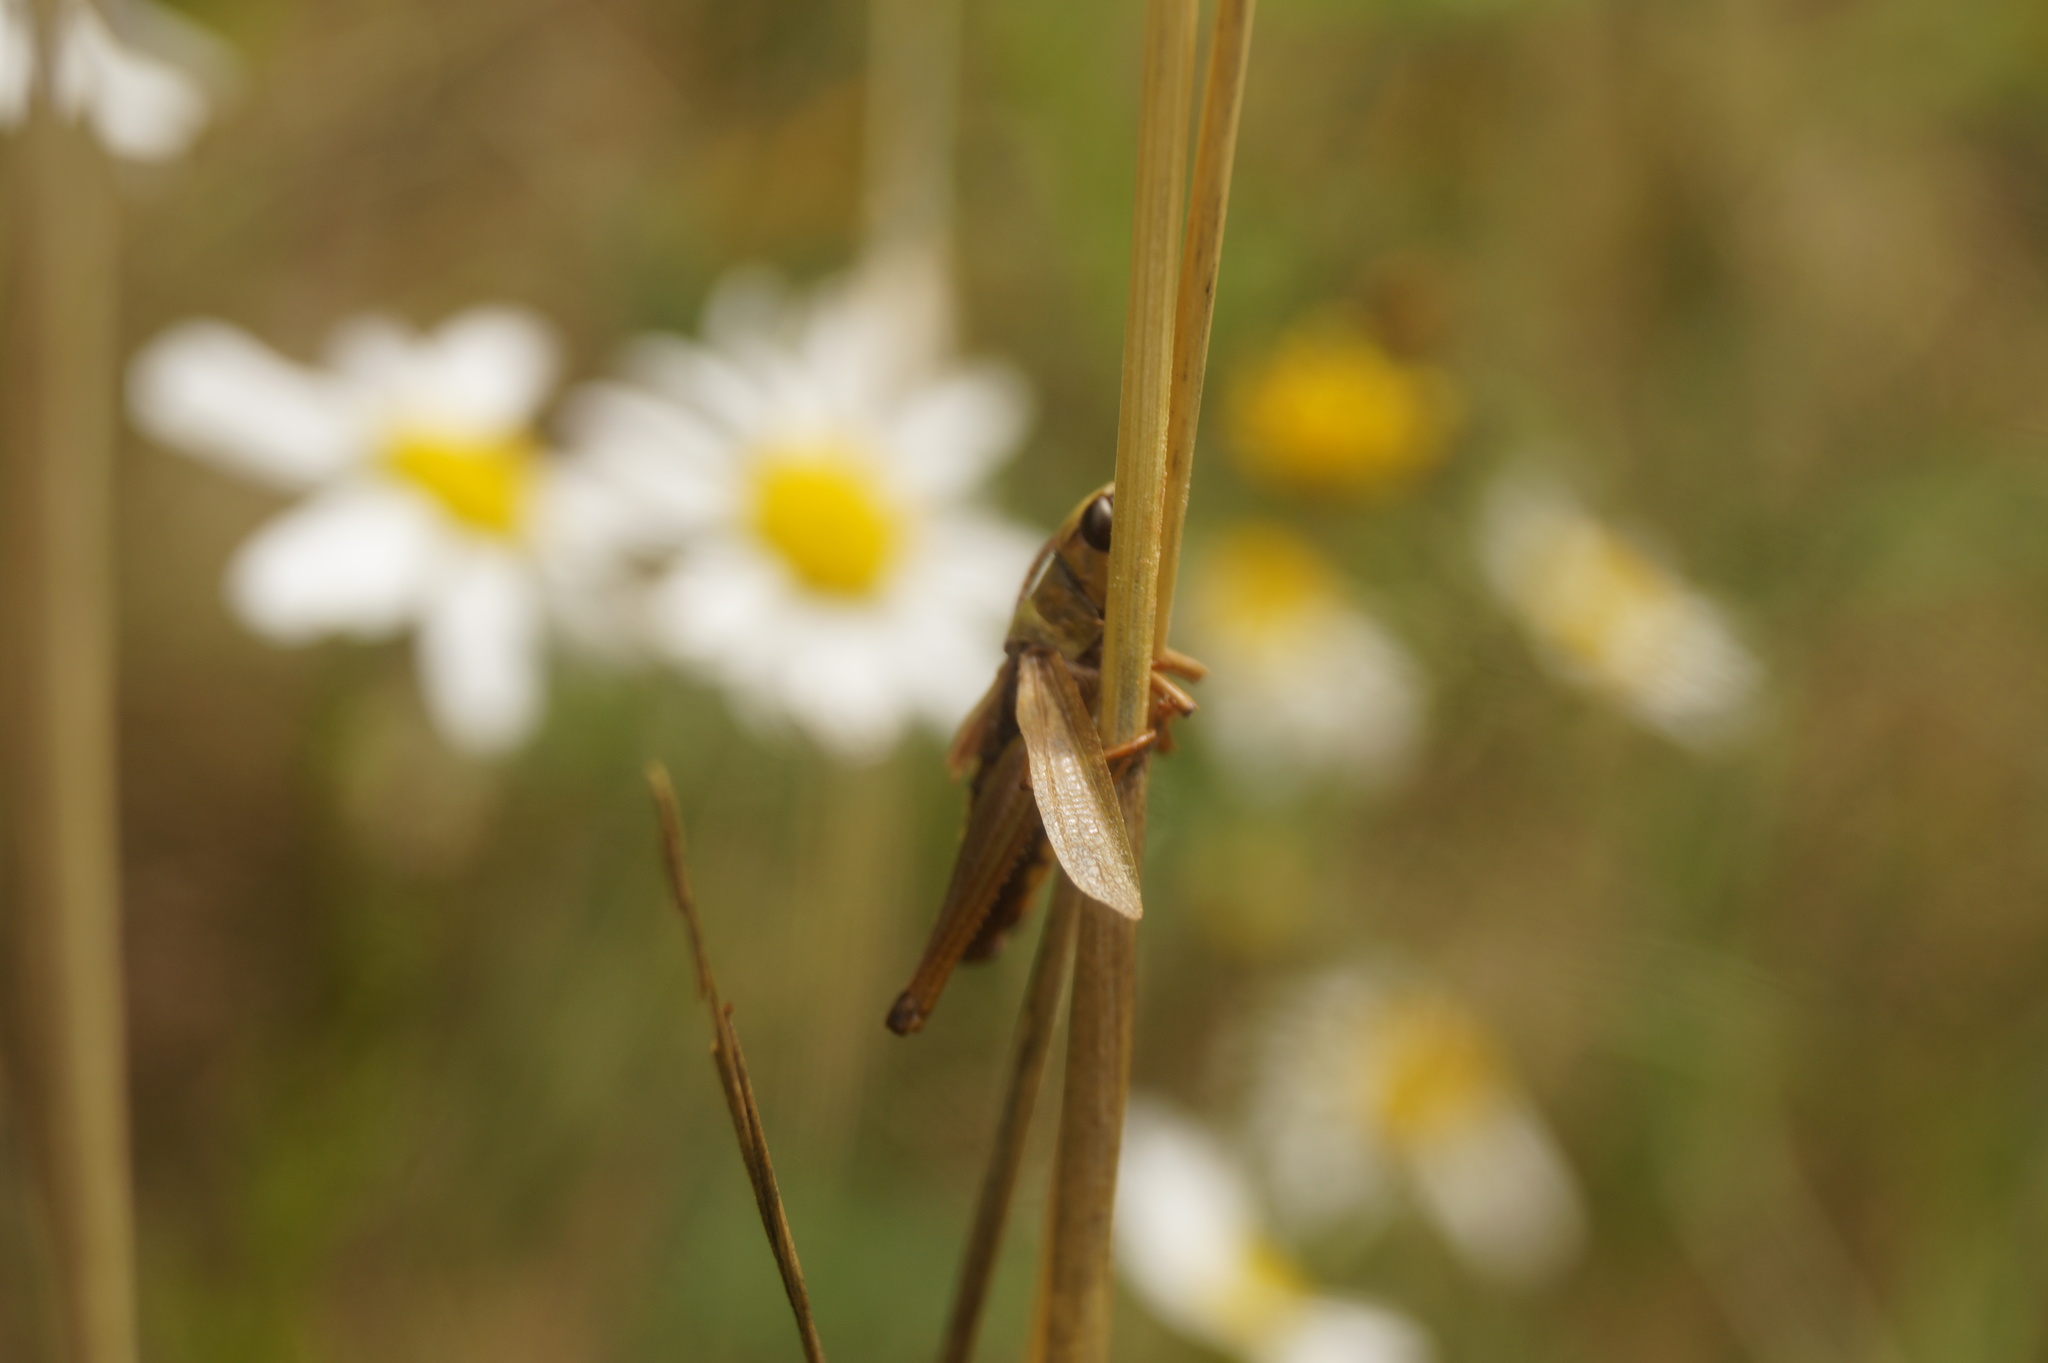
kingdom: Animalia
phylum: Arthropoda
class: Insecta
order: Orthoptera
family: Acrididae
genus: Pseudochorthippus
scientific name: Pseudochorthippus parallelus
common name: Meadow grasshopper
